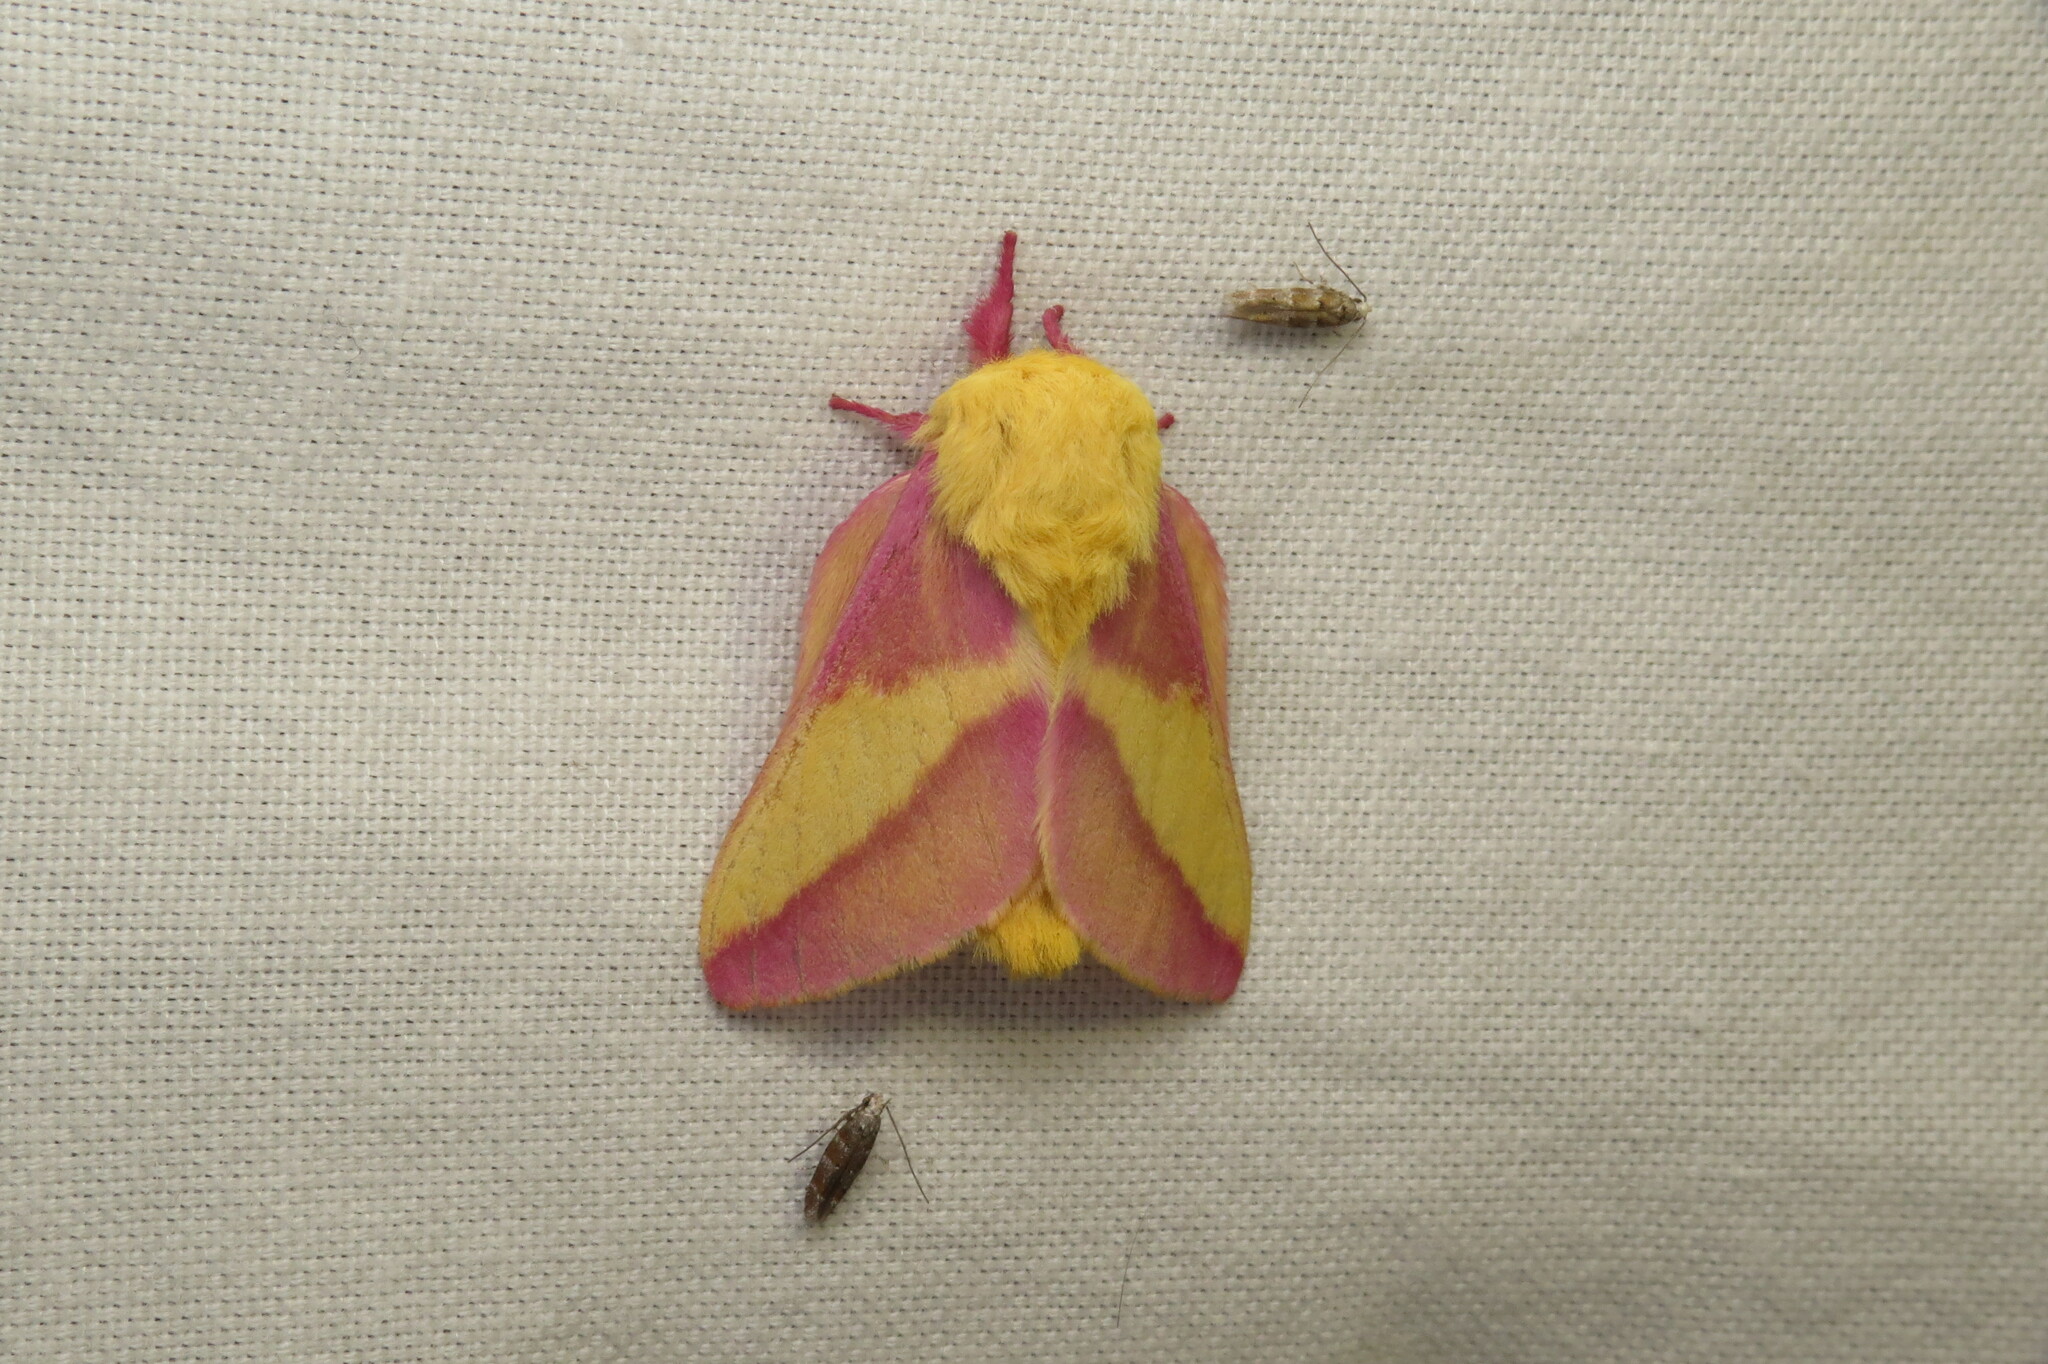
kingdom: Animalia
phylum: Arthropoda
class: Insecta
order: Lepidoptera
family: Saturniidae
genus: Dryocampa
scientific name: Dryocampa rubicunda
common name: Rosy maple moth
